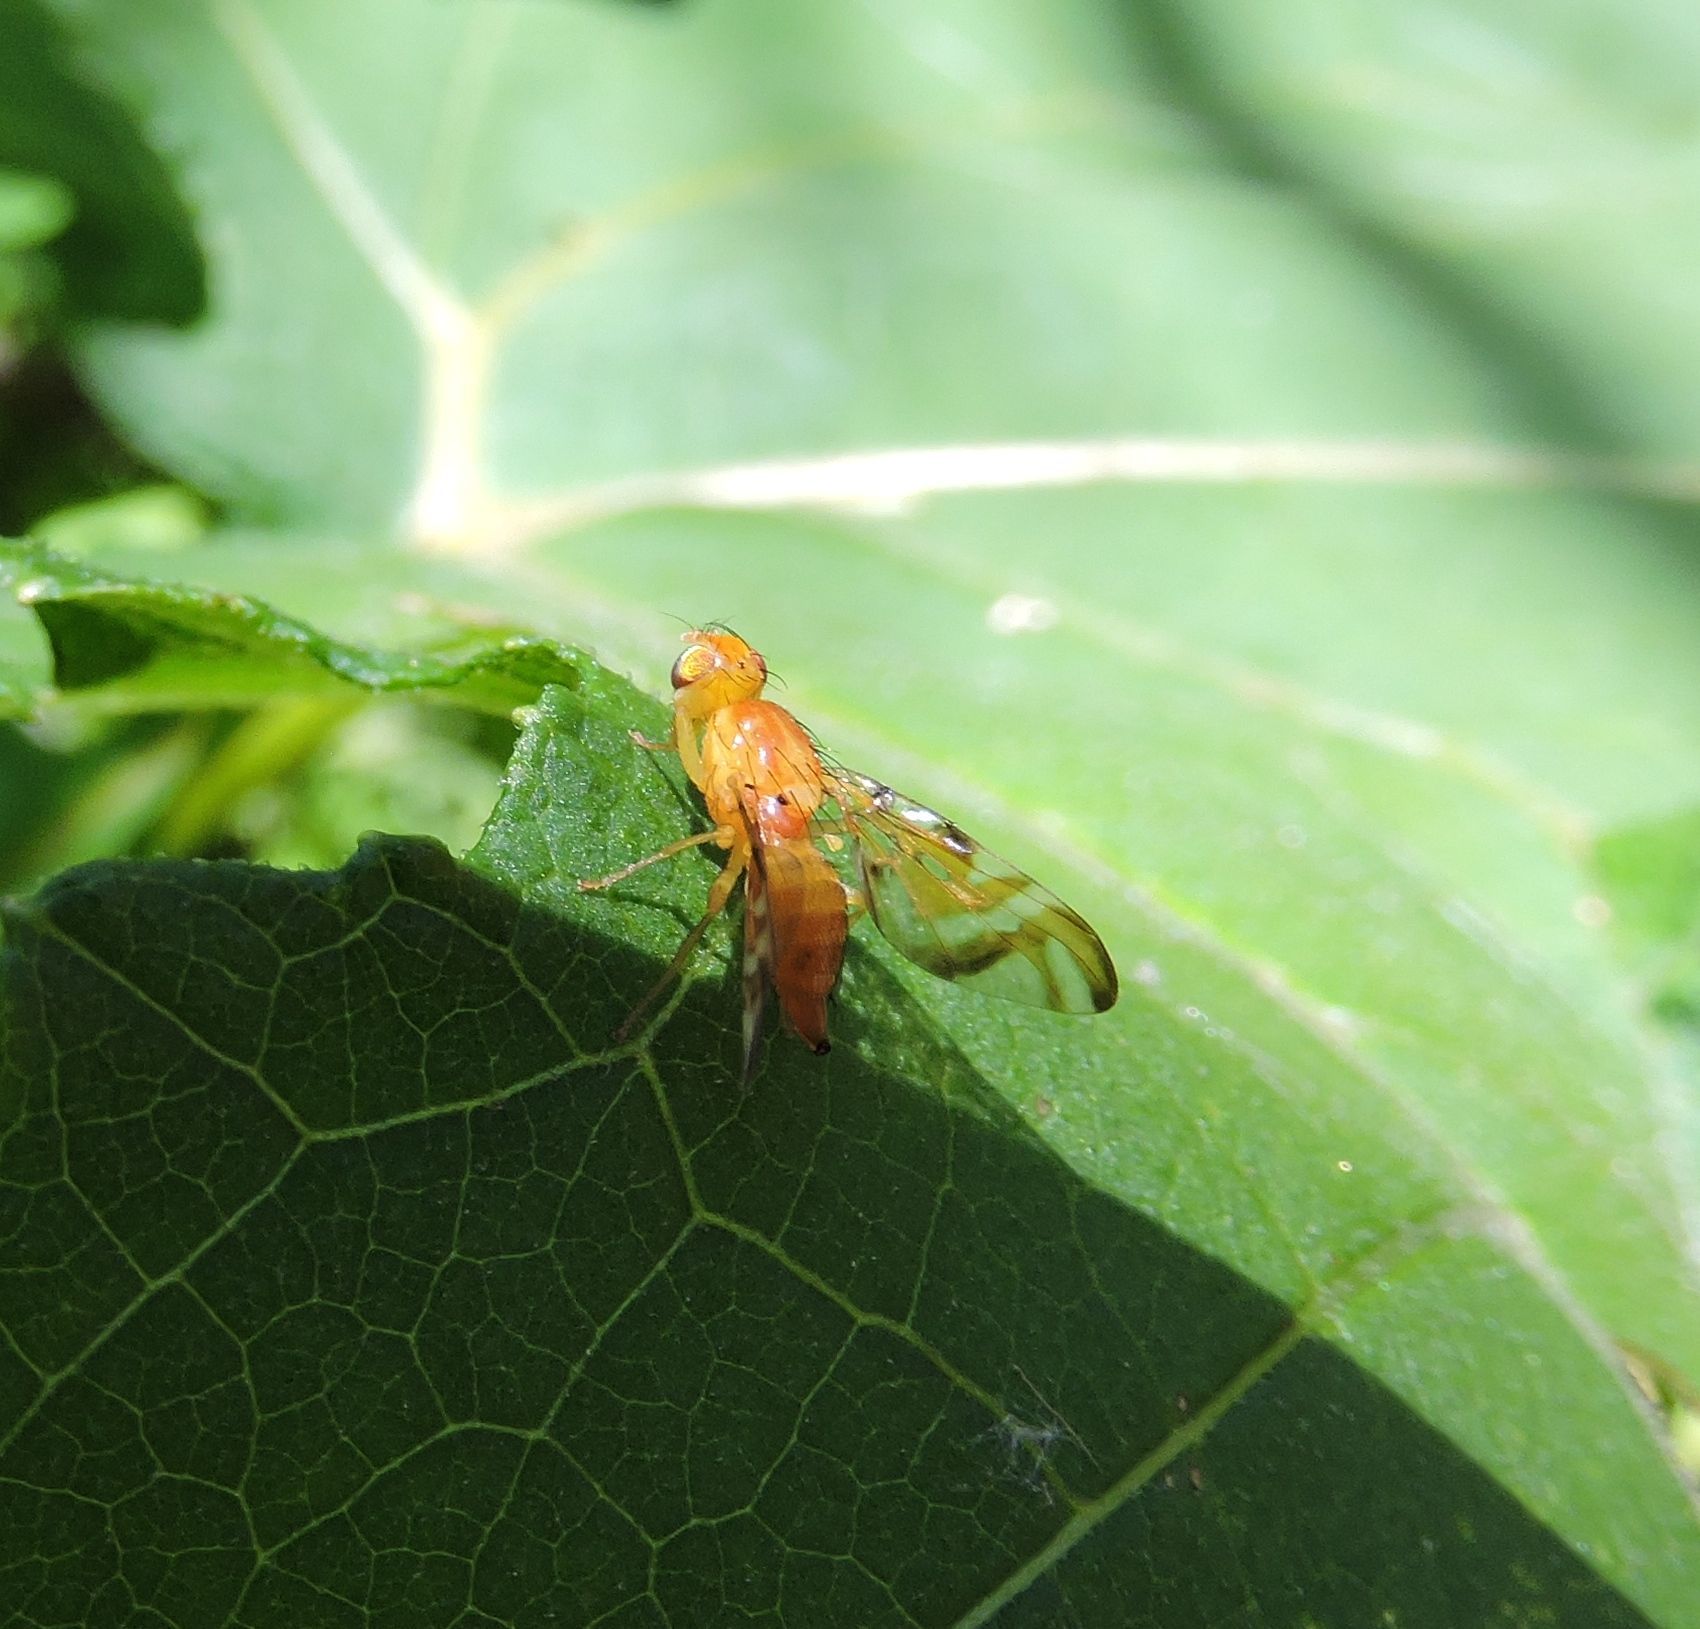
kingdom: Animalia
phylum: Arthropoda
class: Insecta
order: Diptera
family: Tephritidae
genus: Strauzia
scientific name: Strauzia longipennis
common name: Sunflower maggot
